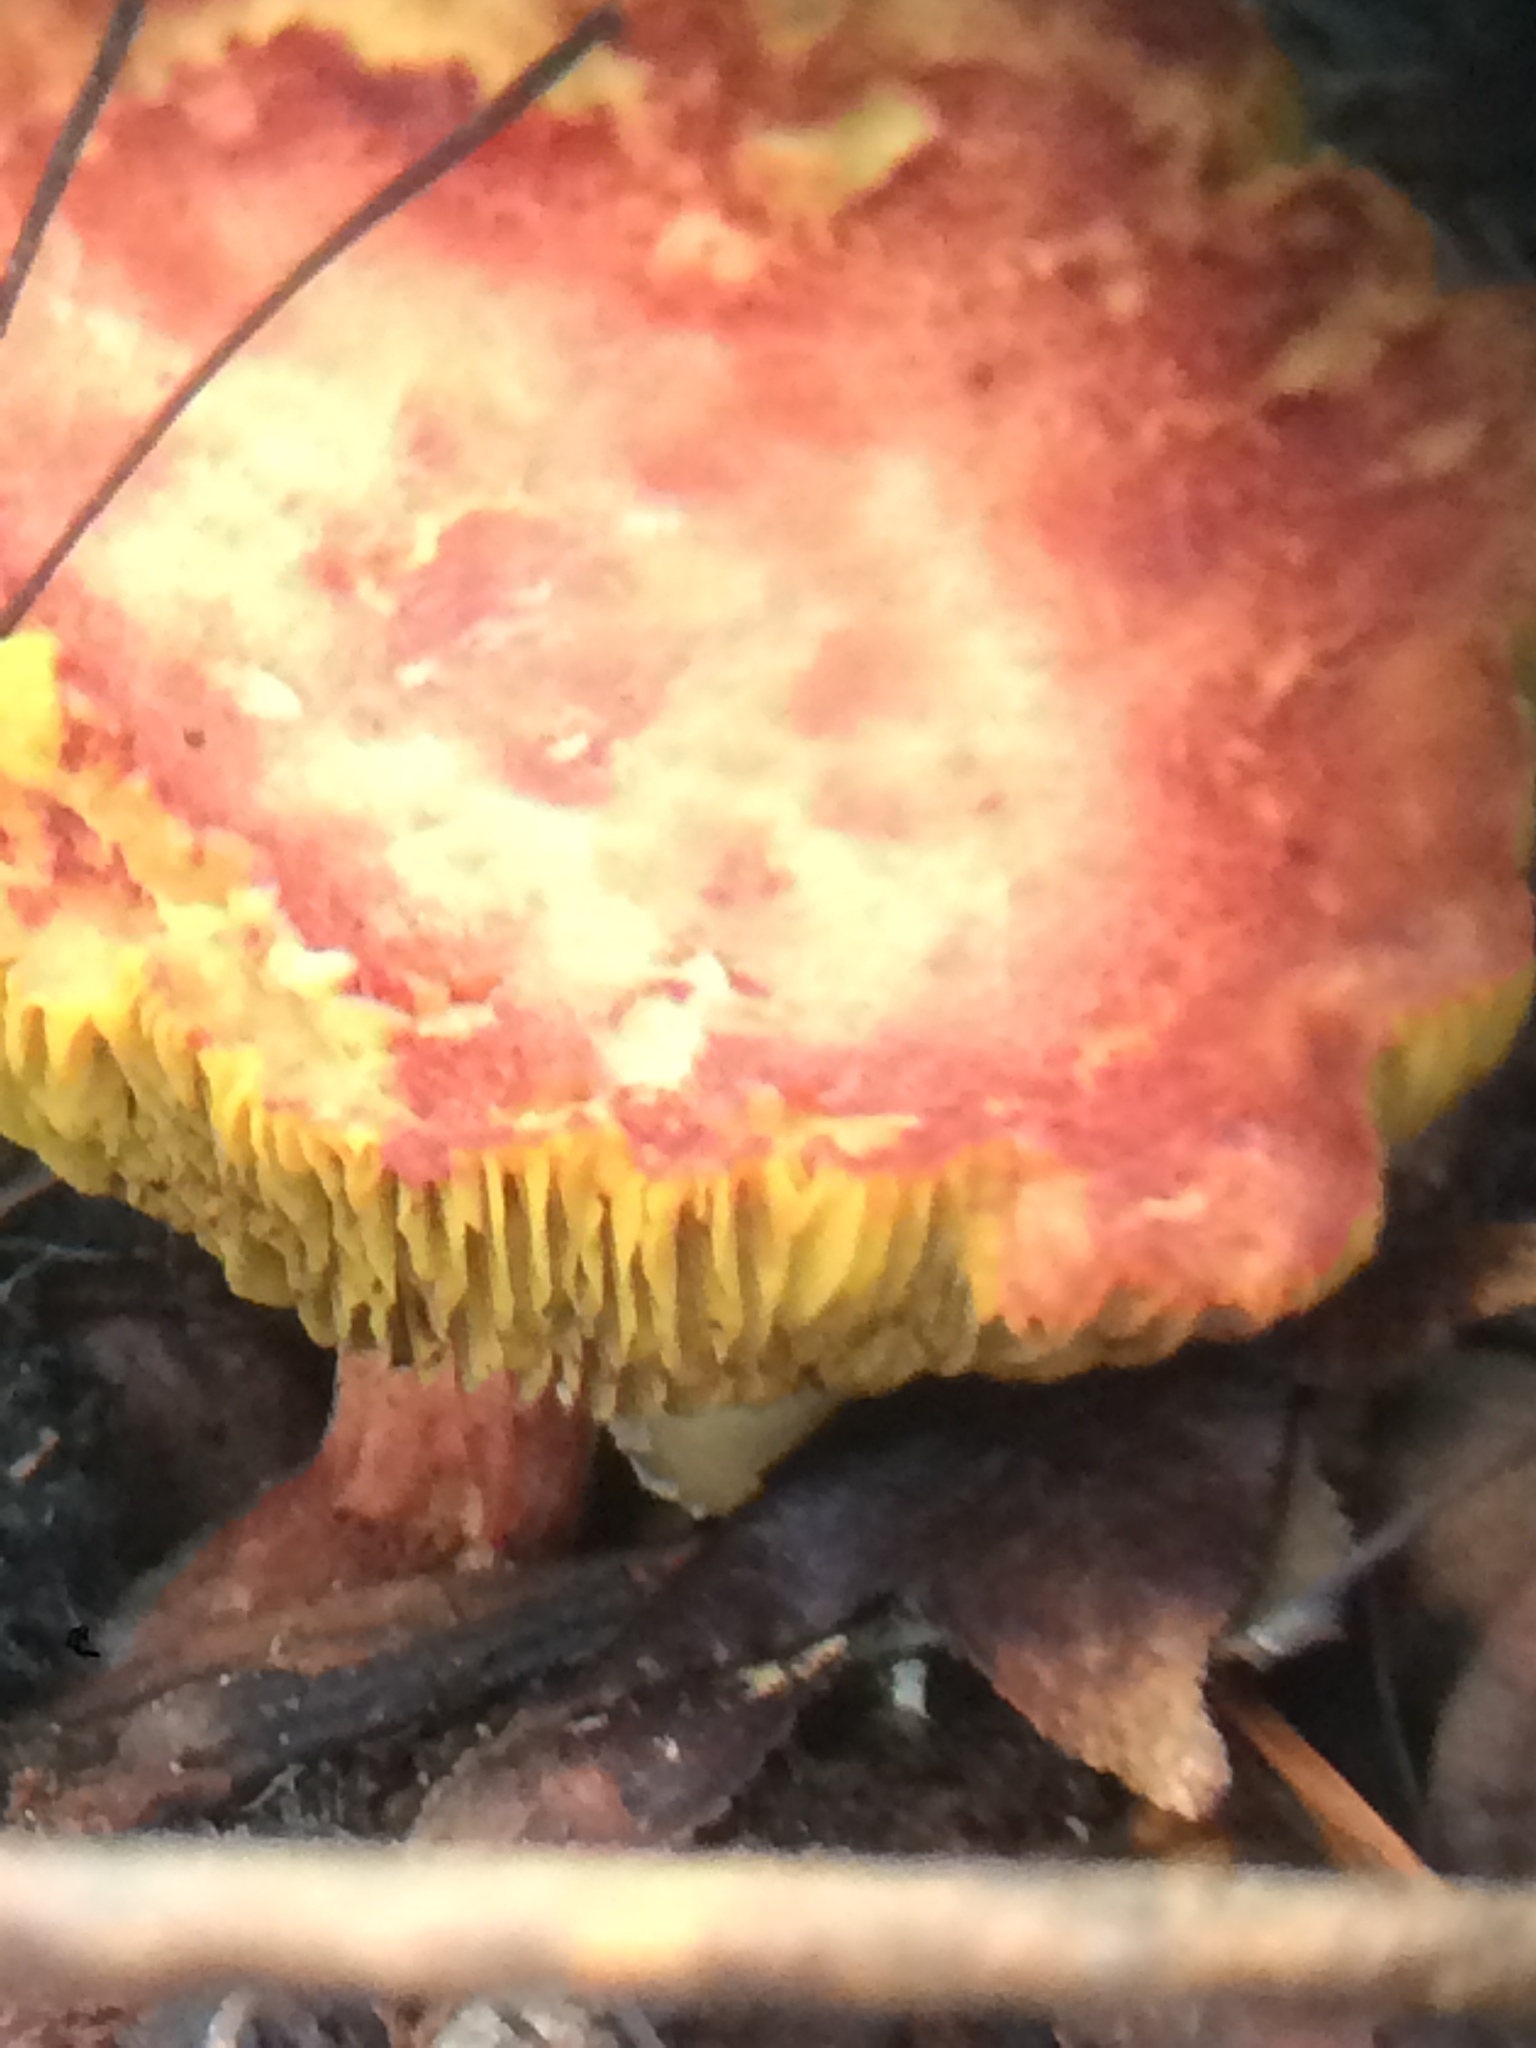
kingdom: Fungi
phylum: Basidiomycota
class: Agaricomycetes
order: Boletales
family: Boletaceae
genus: Phylloporus
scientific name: Phylloporus rhodoxanthus
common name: Golden gilled bolete
